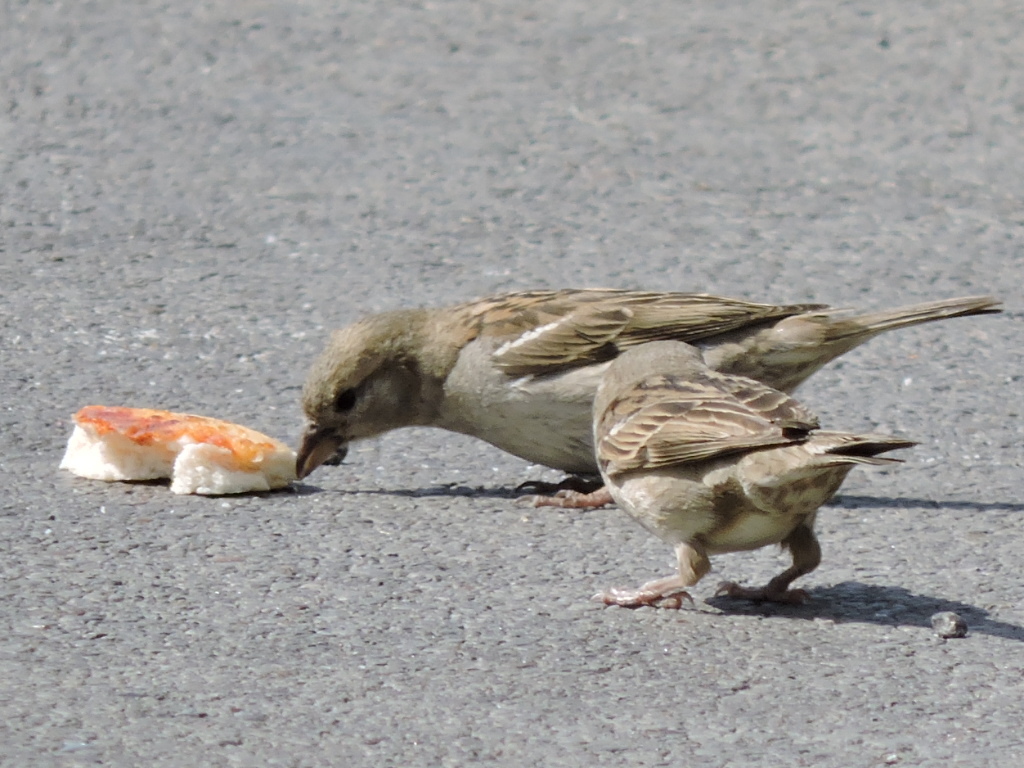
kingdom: Animalia
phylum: Chordata
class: Aves
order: Passeriformes
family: Passeridae
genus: Passer
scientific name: Passer domesticus
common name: House sparrow
